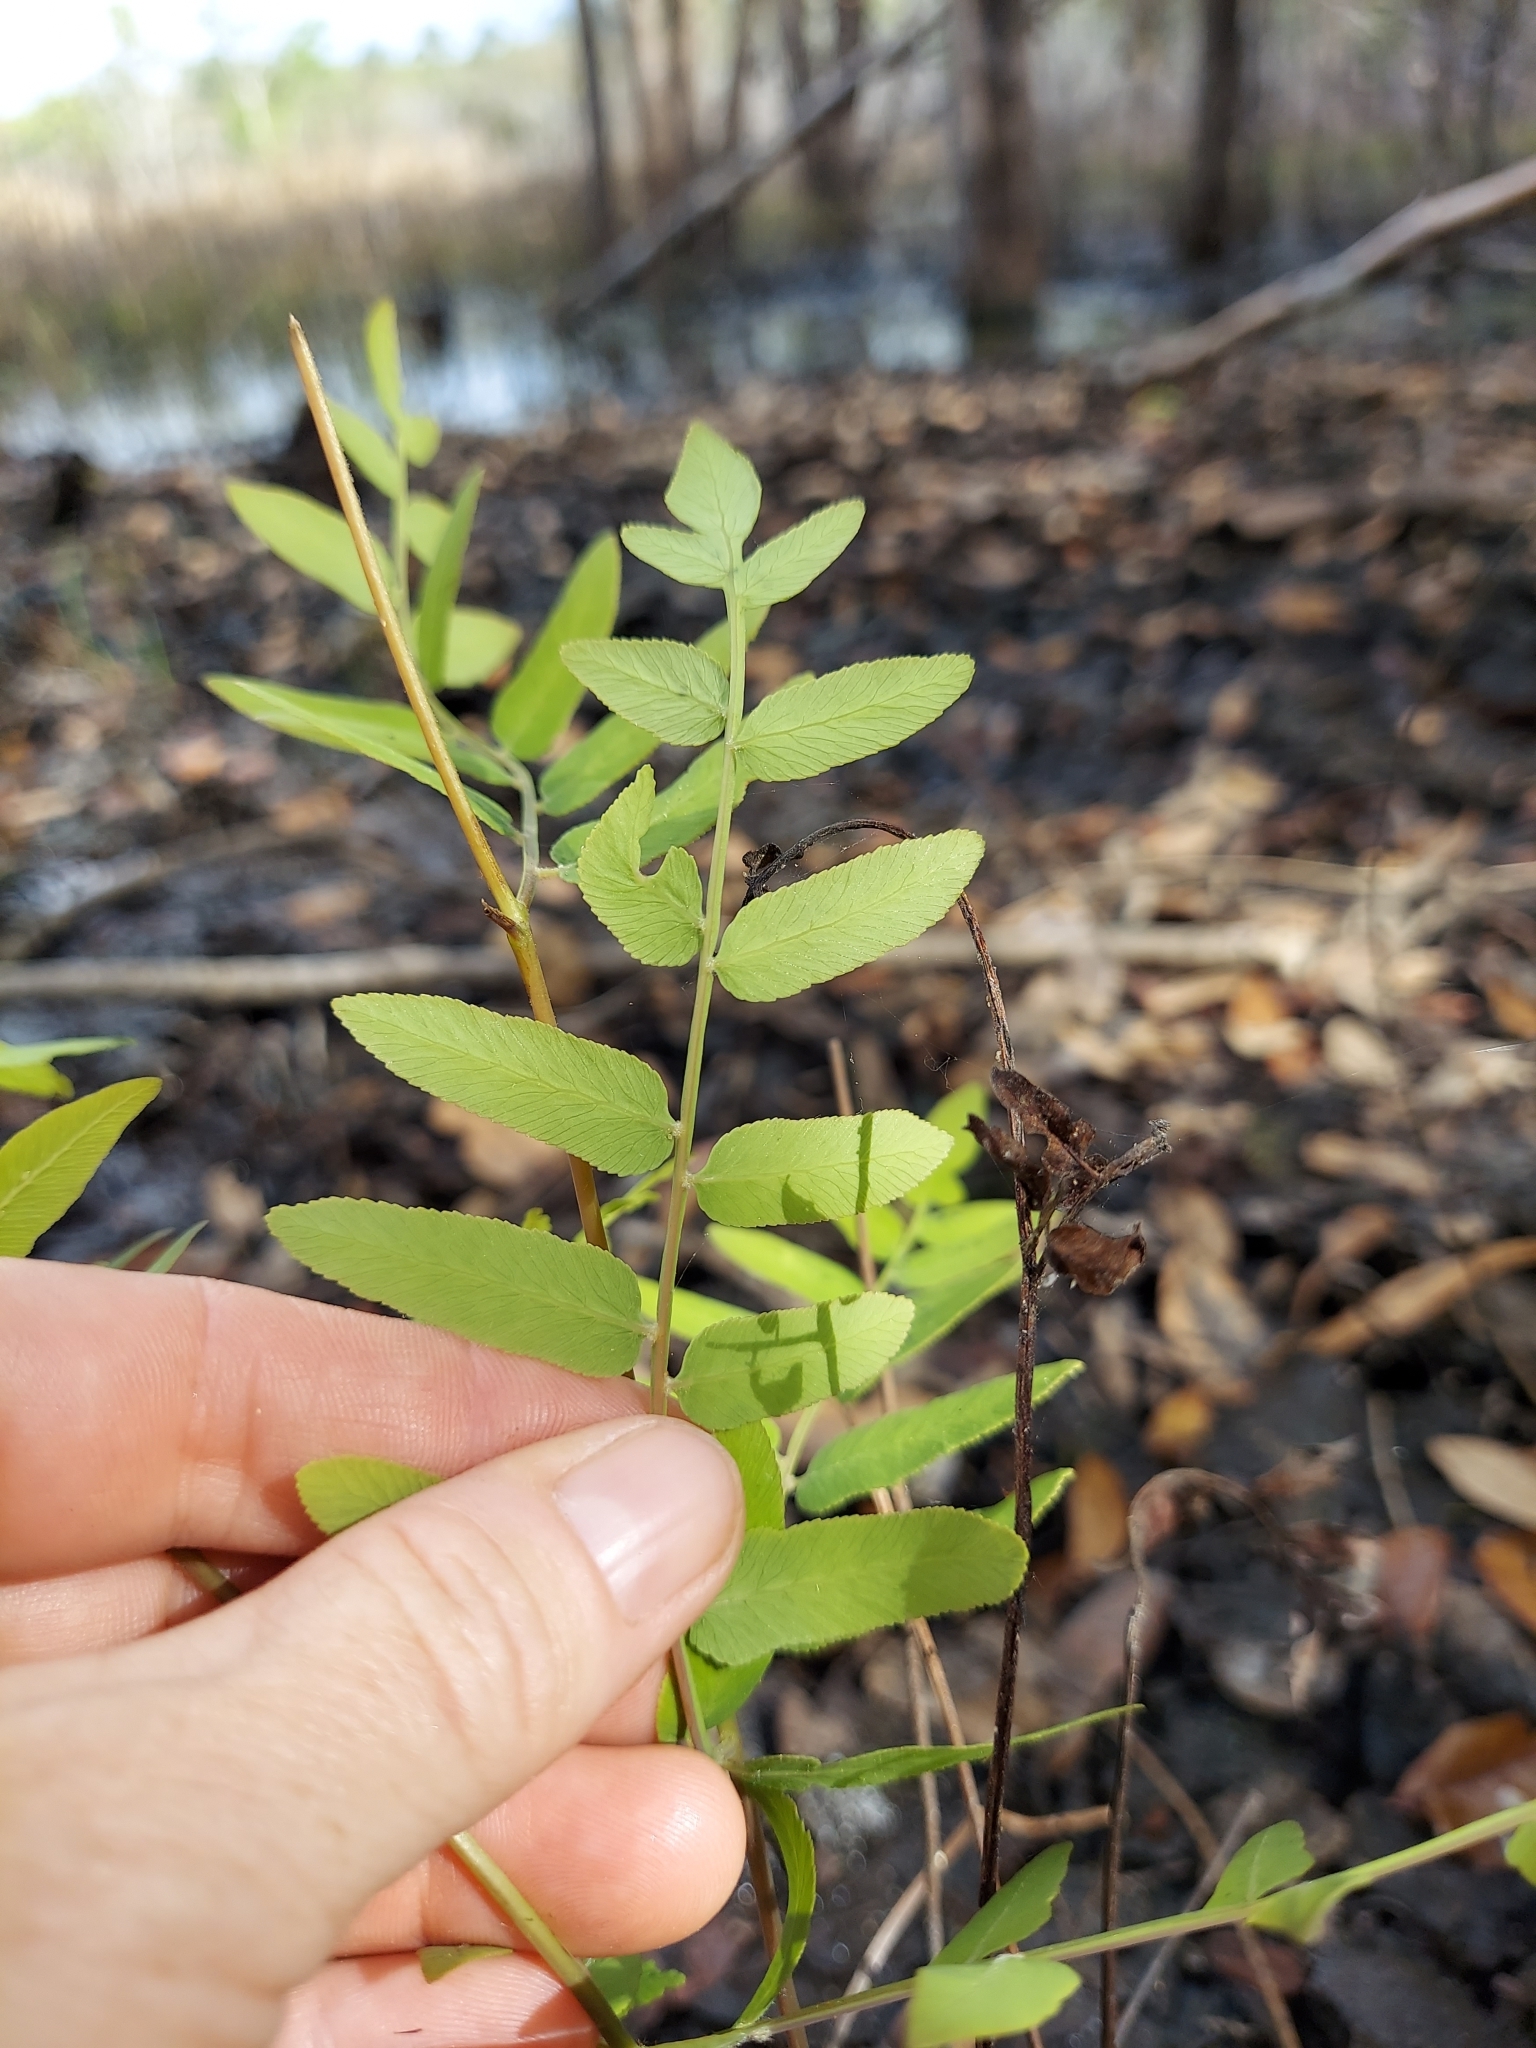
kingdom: Plantae
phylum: Tracheophyta
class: Polypodiopsida
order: Osmundales
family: Osmundaceae
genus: Osmunda
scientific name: Osmunda spectabilis
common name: American royal fern
